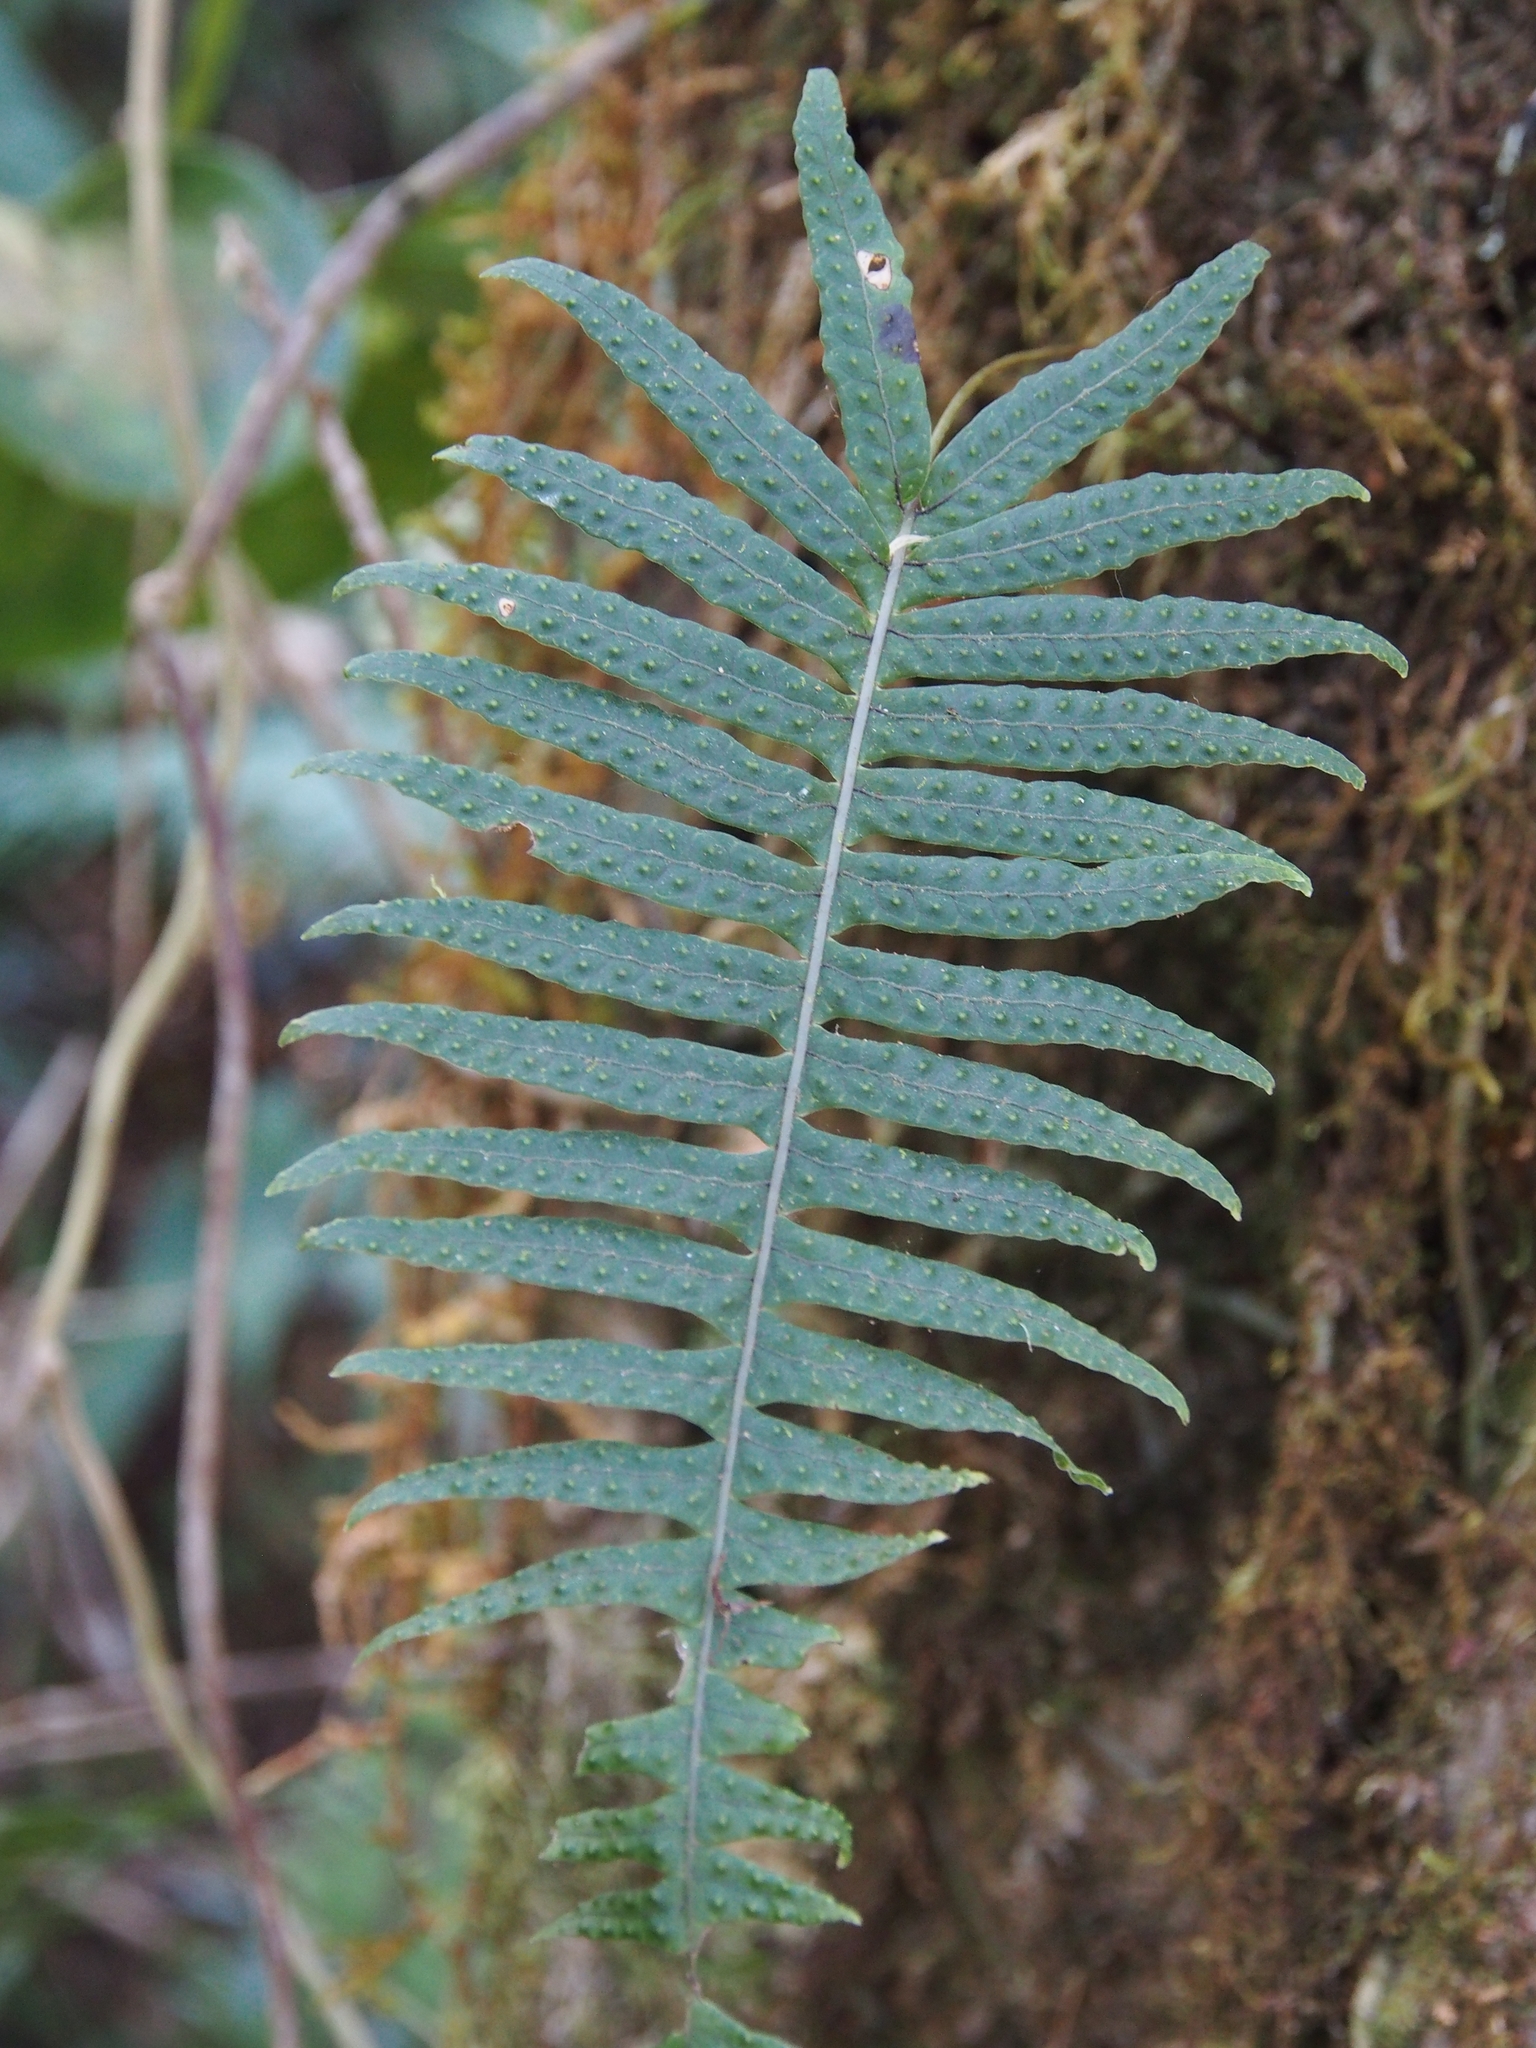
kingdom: Plantae
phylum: Tracheophyta
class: Polypodiopsida
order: Polypodiales
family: Polypodiaceae
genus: Serpocaulon
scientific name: Serpocaulon loriceum
